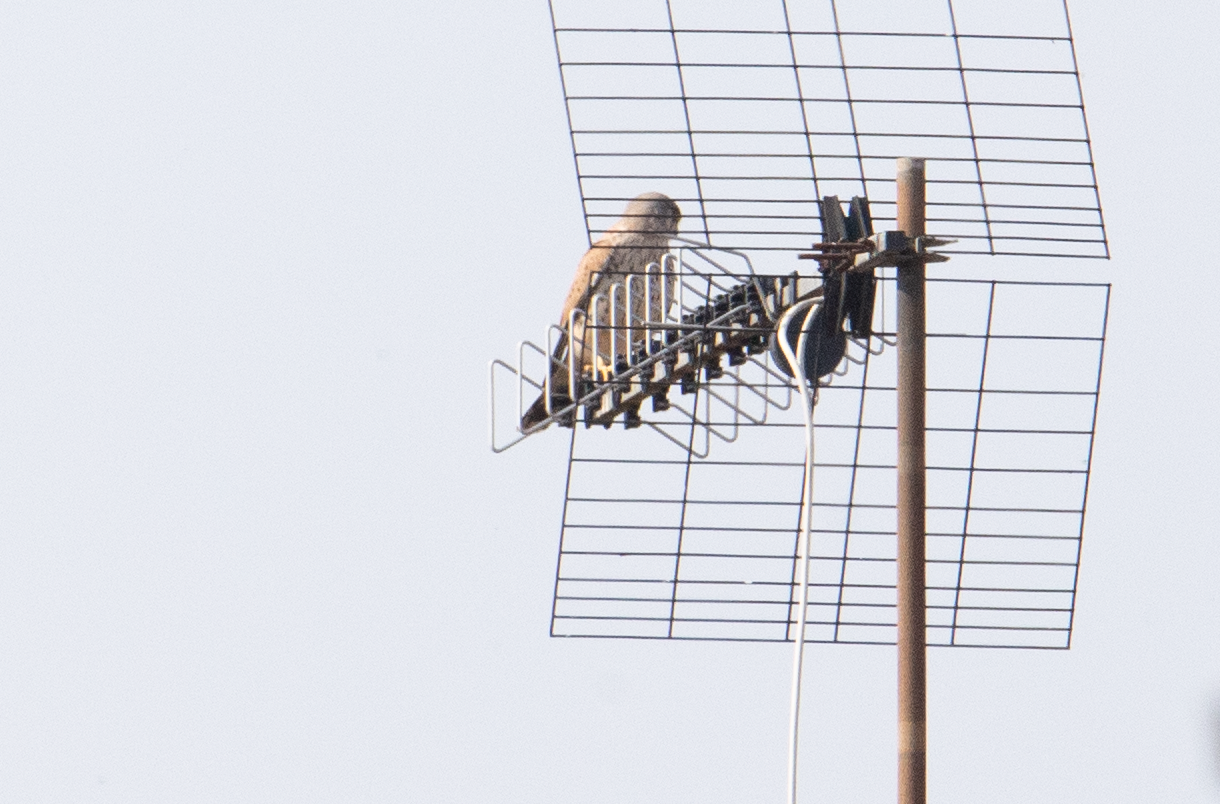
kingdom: Animalia
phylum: Chordata
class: Aves
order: Falconiformes
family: Falconidae
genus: Falco
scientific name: Falco tinnunculus
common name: Common kestrel
